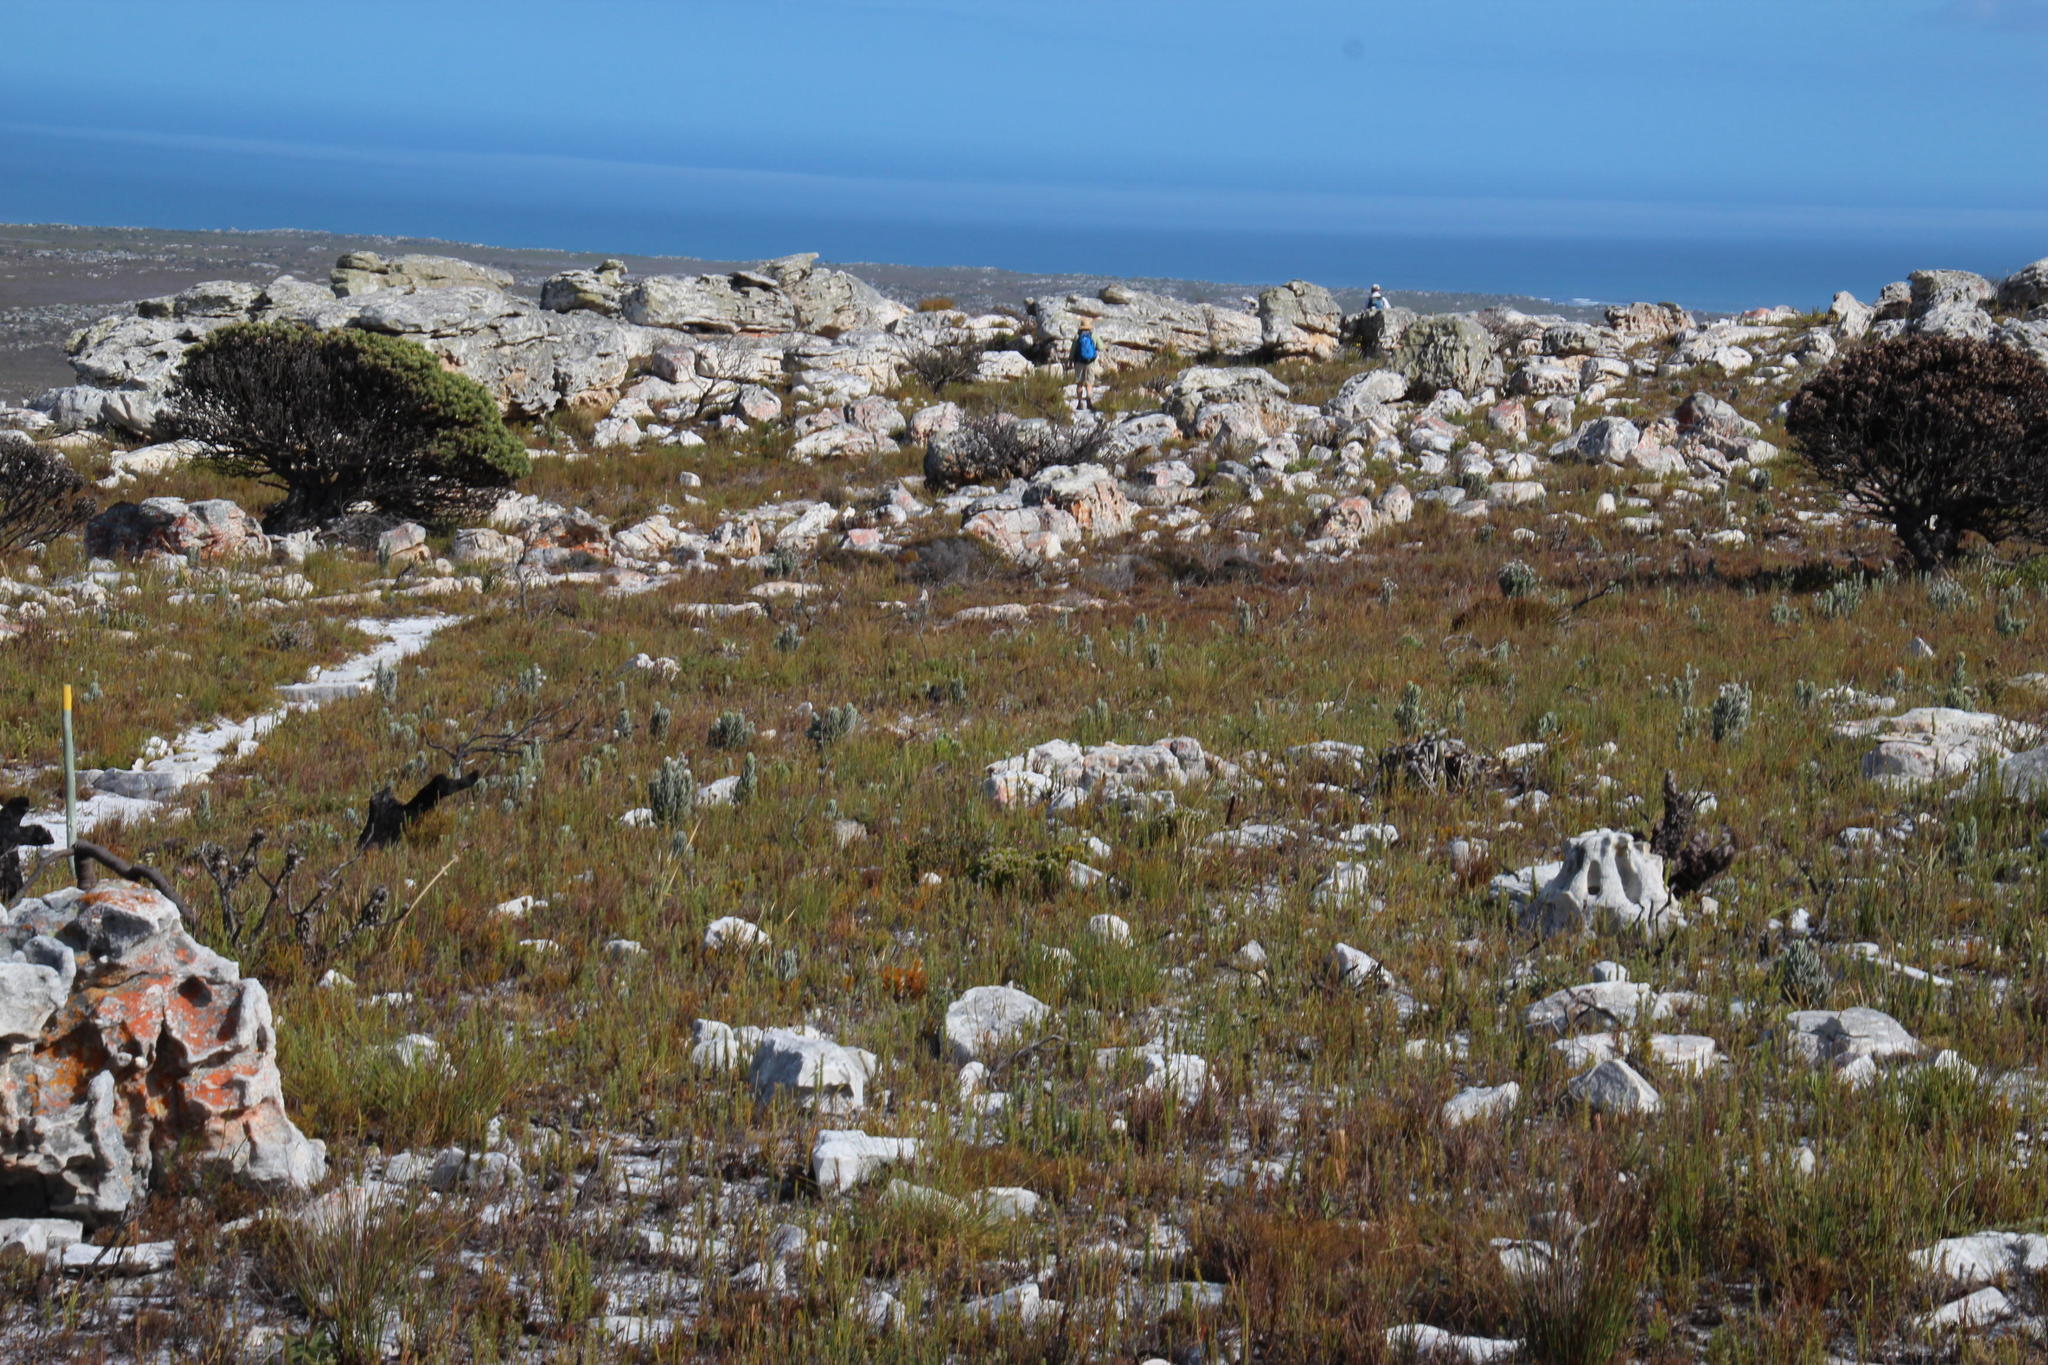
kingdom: Plantae
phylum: Tracheophyta
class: Magnoliopsida
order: Asterales
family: Asteraceae
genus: Syncarpha
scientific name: Syncarpha vestita
